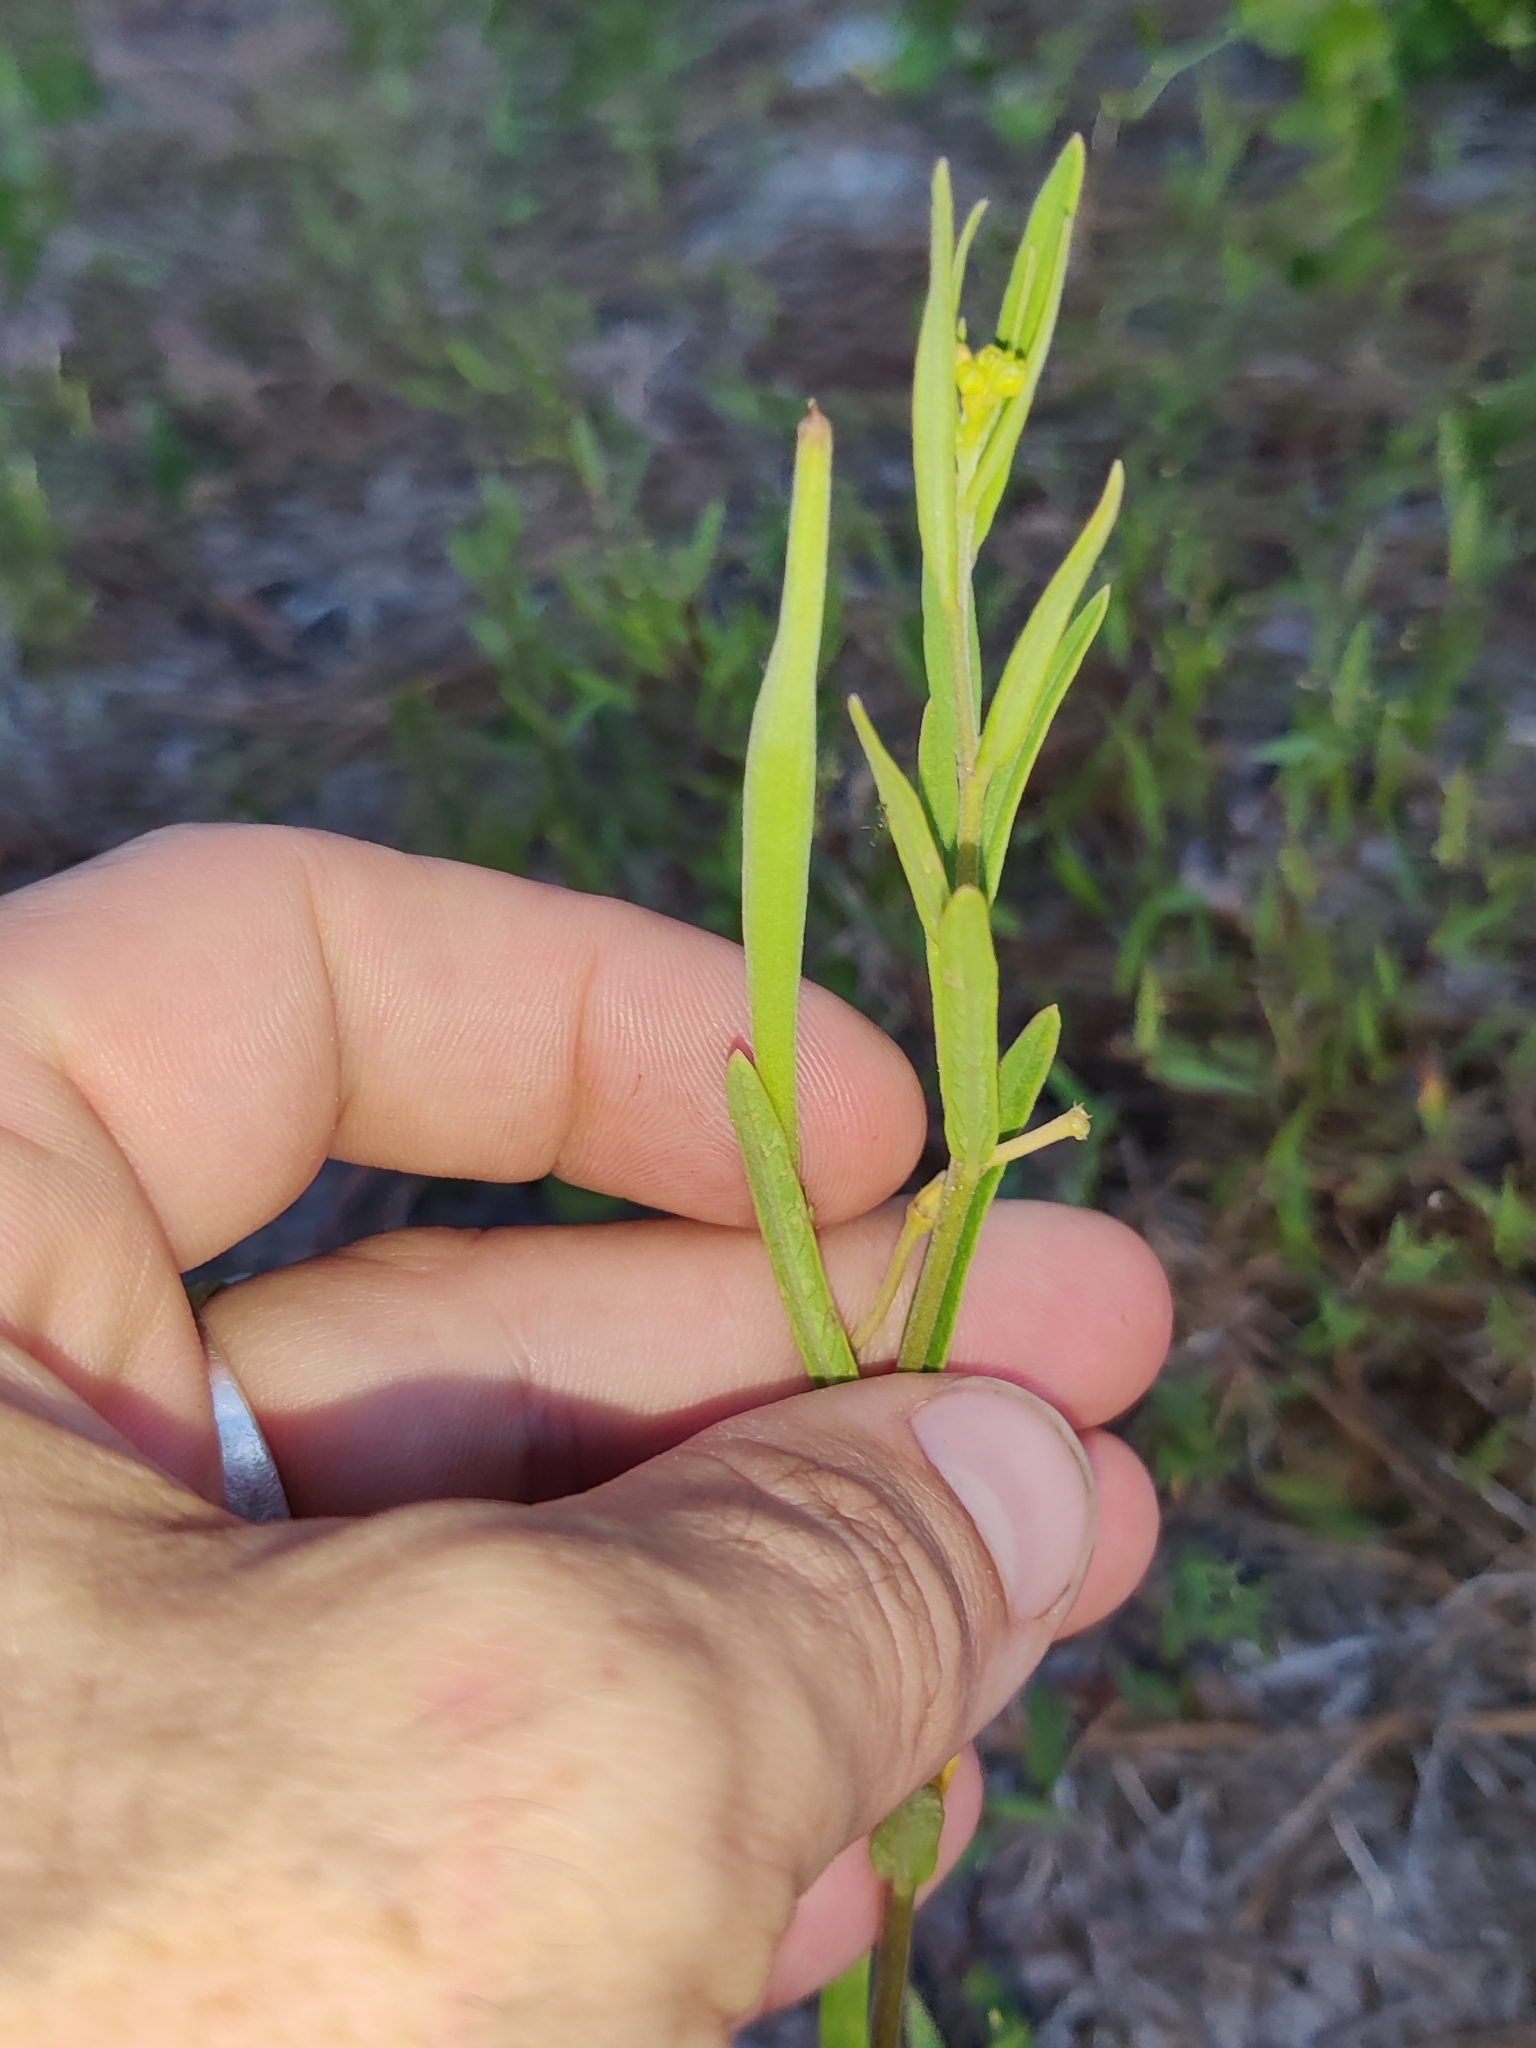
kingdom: Plantae
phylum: Tracheophyta
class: Magnoliopsida
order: Gentianales
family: Apocynaceae
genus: Asclepias
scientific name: Asclepias pedicellata
